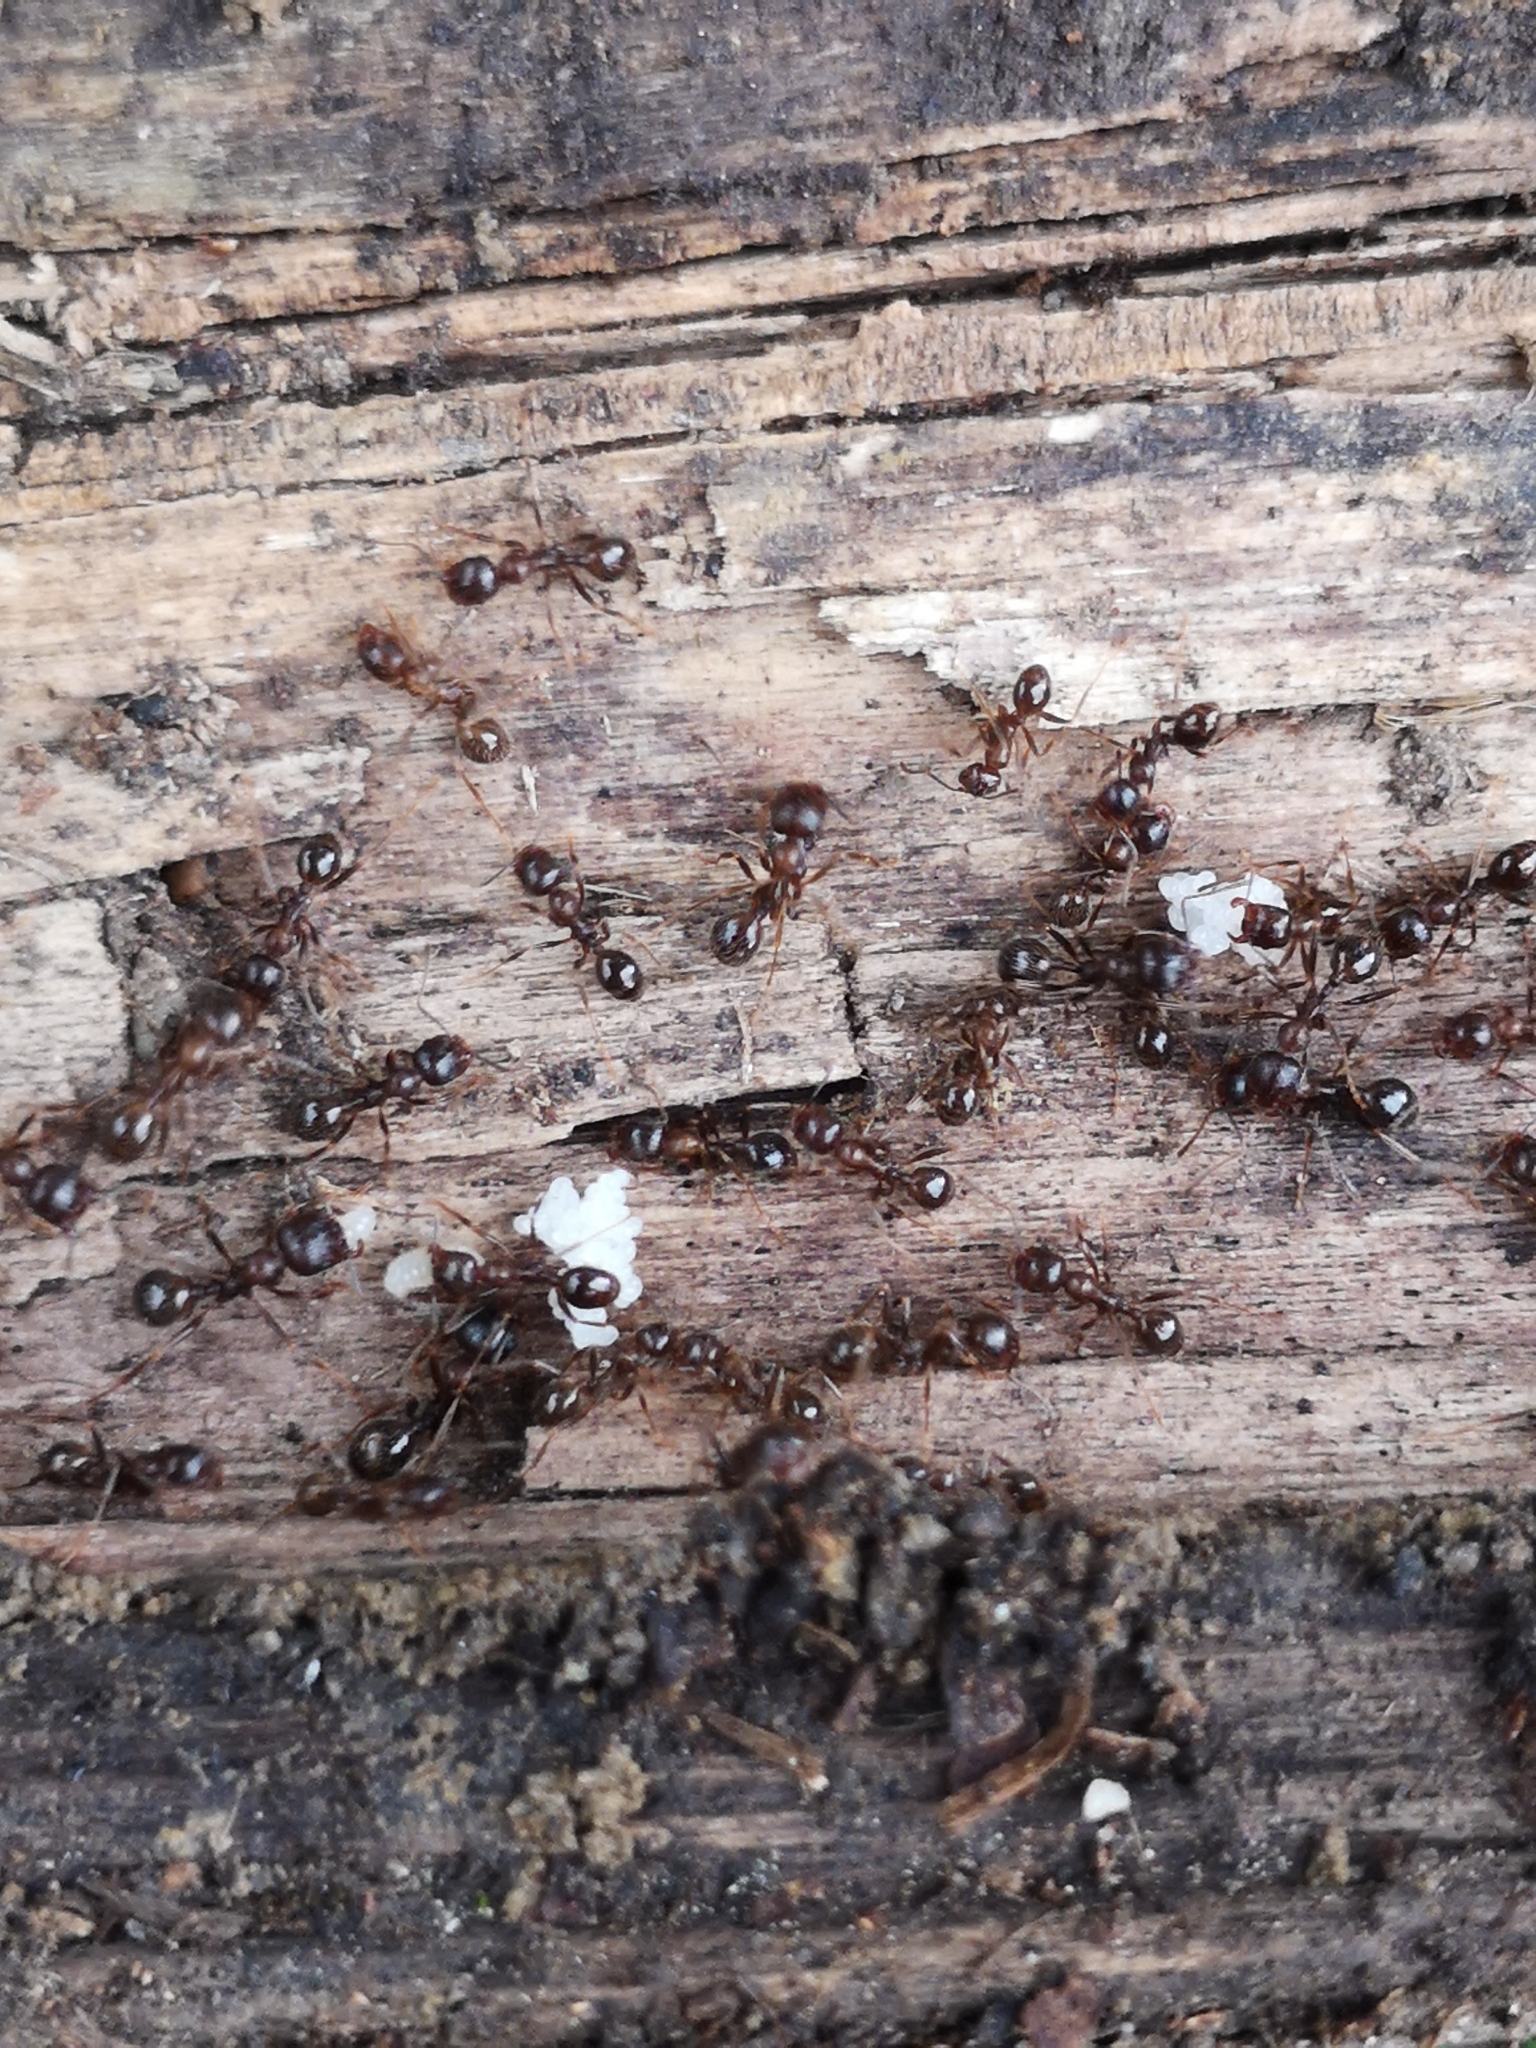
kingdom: Animalia
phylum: Arthropoda
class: Insecta
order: Hymenoptera
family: Formicidae
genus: Messor
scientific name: Messor ibericus
